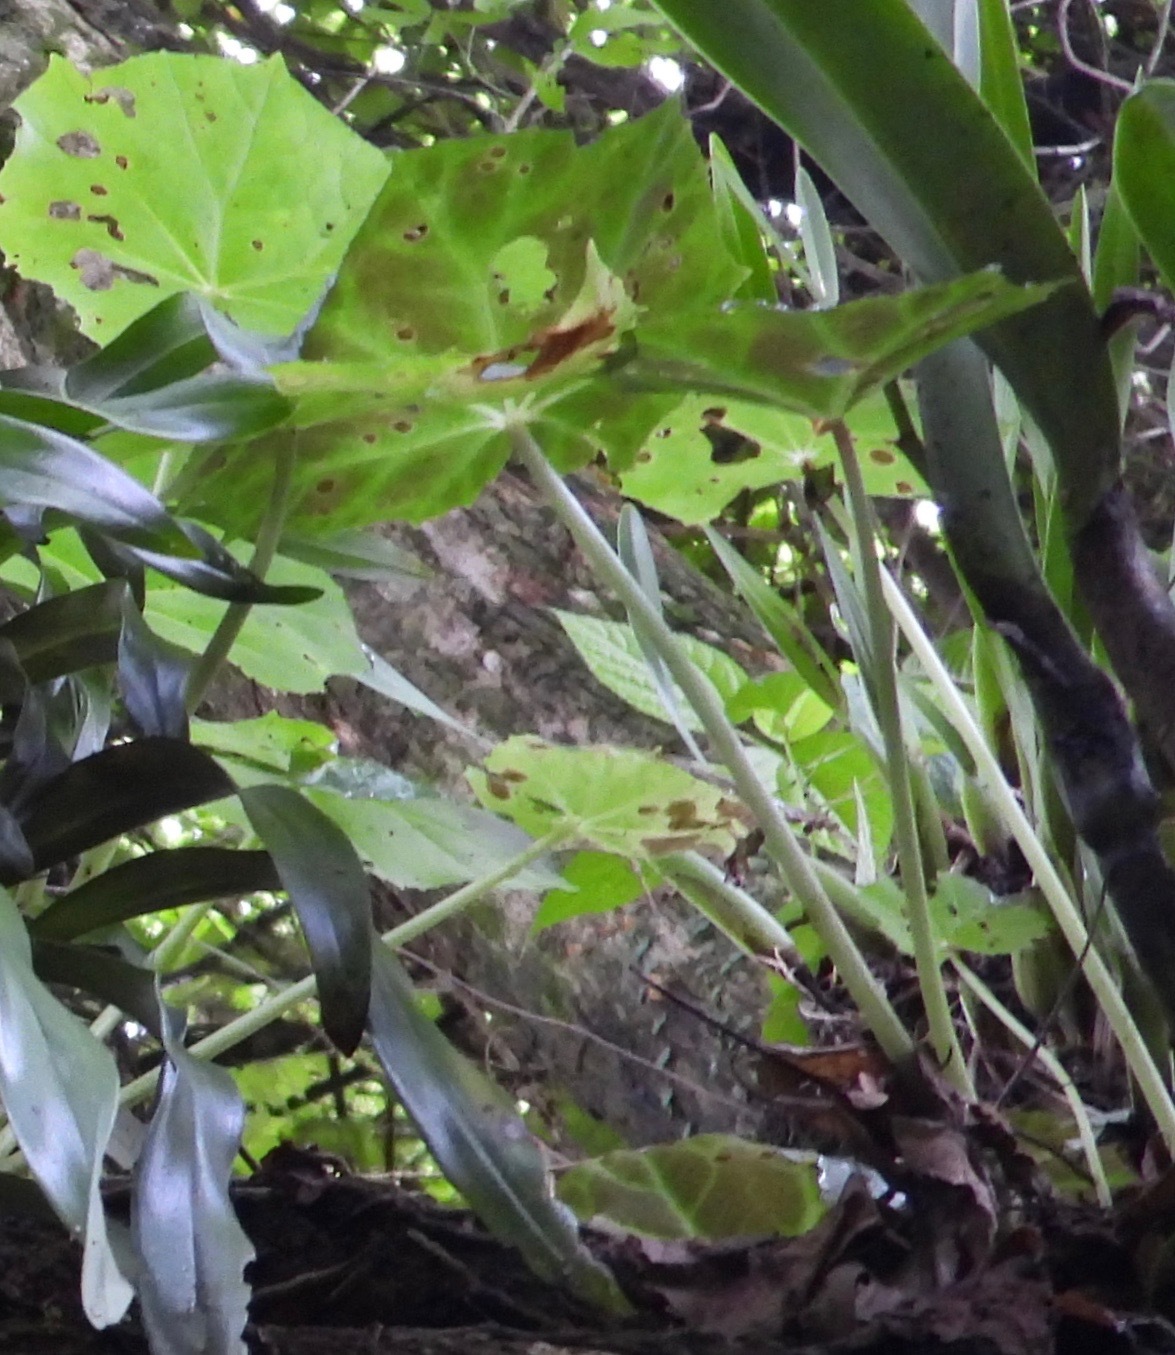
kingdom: Plantae
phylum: Tracheophyta
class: Magnoliopsida
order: Cucurbitales
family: Begoniaceae
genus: Begonia
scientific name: Begonia plebeja
